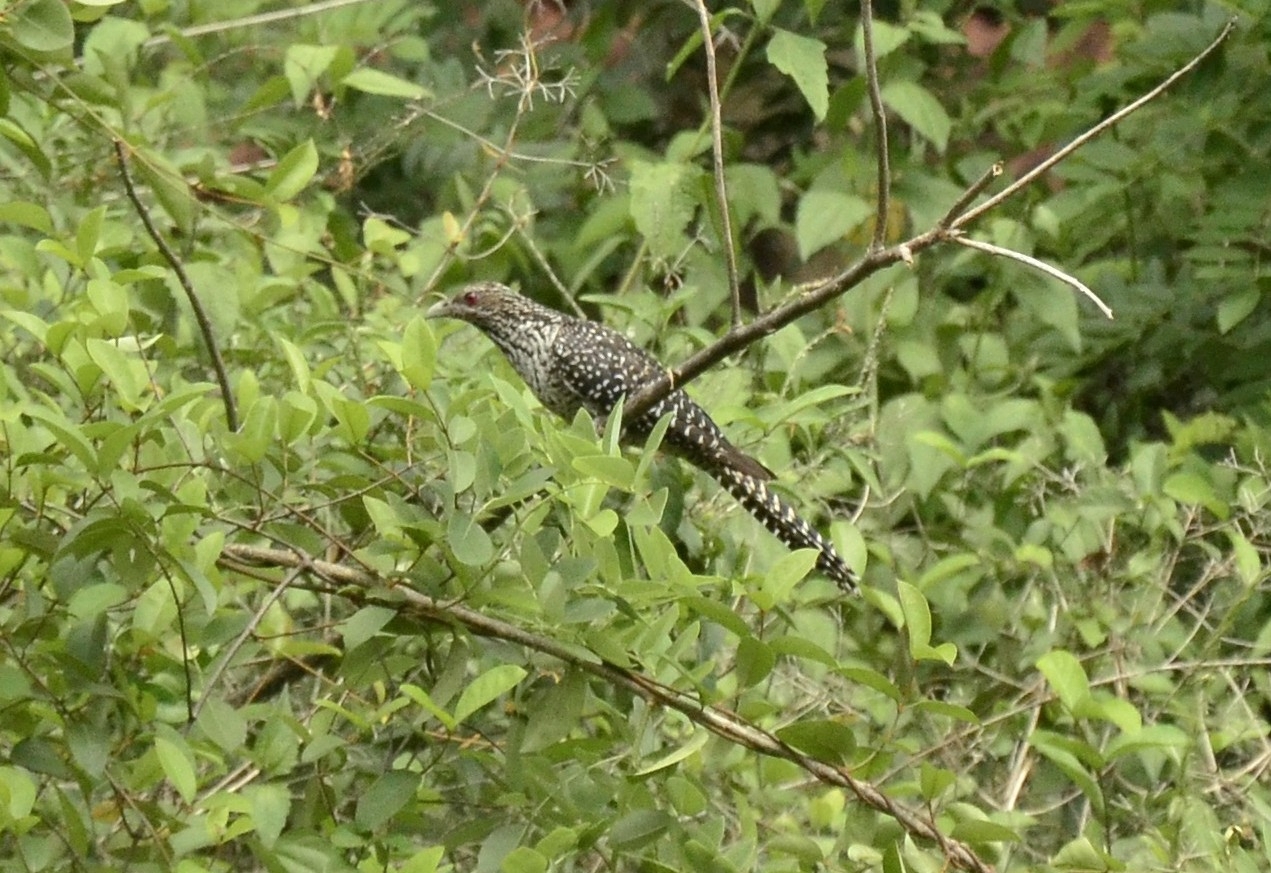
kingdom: Animalia
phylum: Chordata
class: Aves
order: Cuculiformes
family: Cuculidae
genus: Eudynamys
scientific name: Eudynamys scolopaceus
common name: Asian koel
